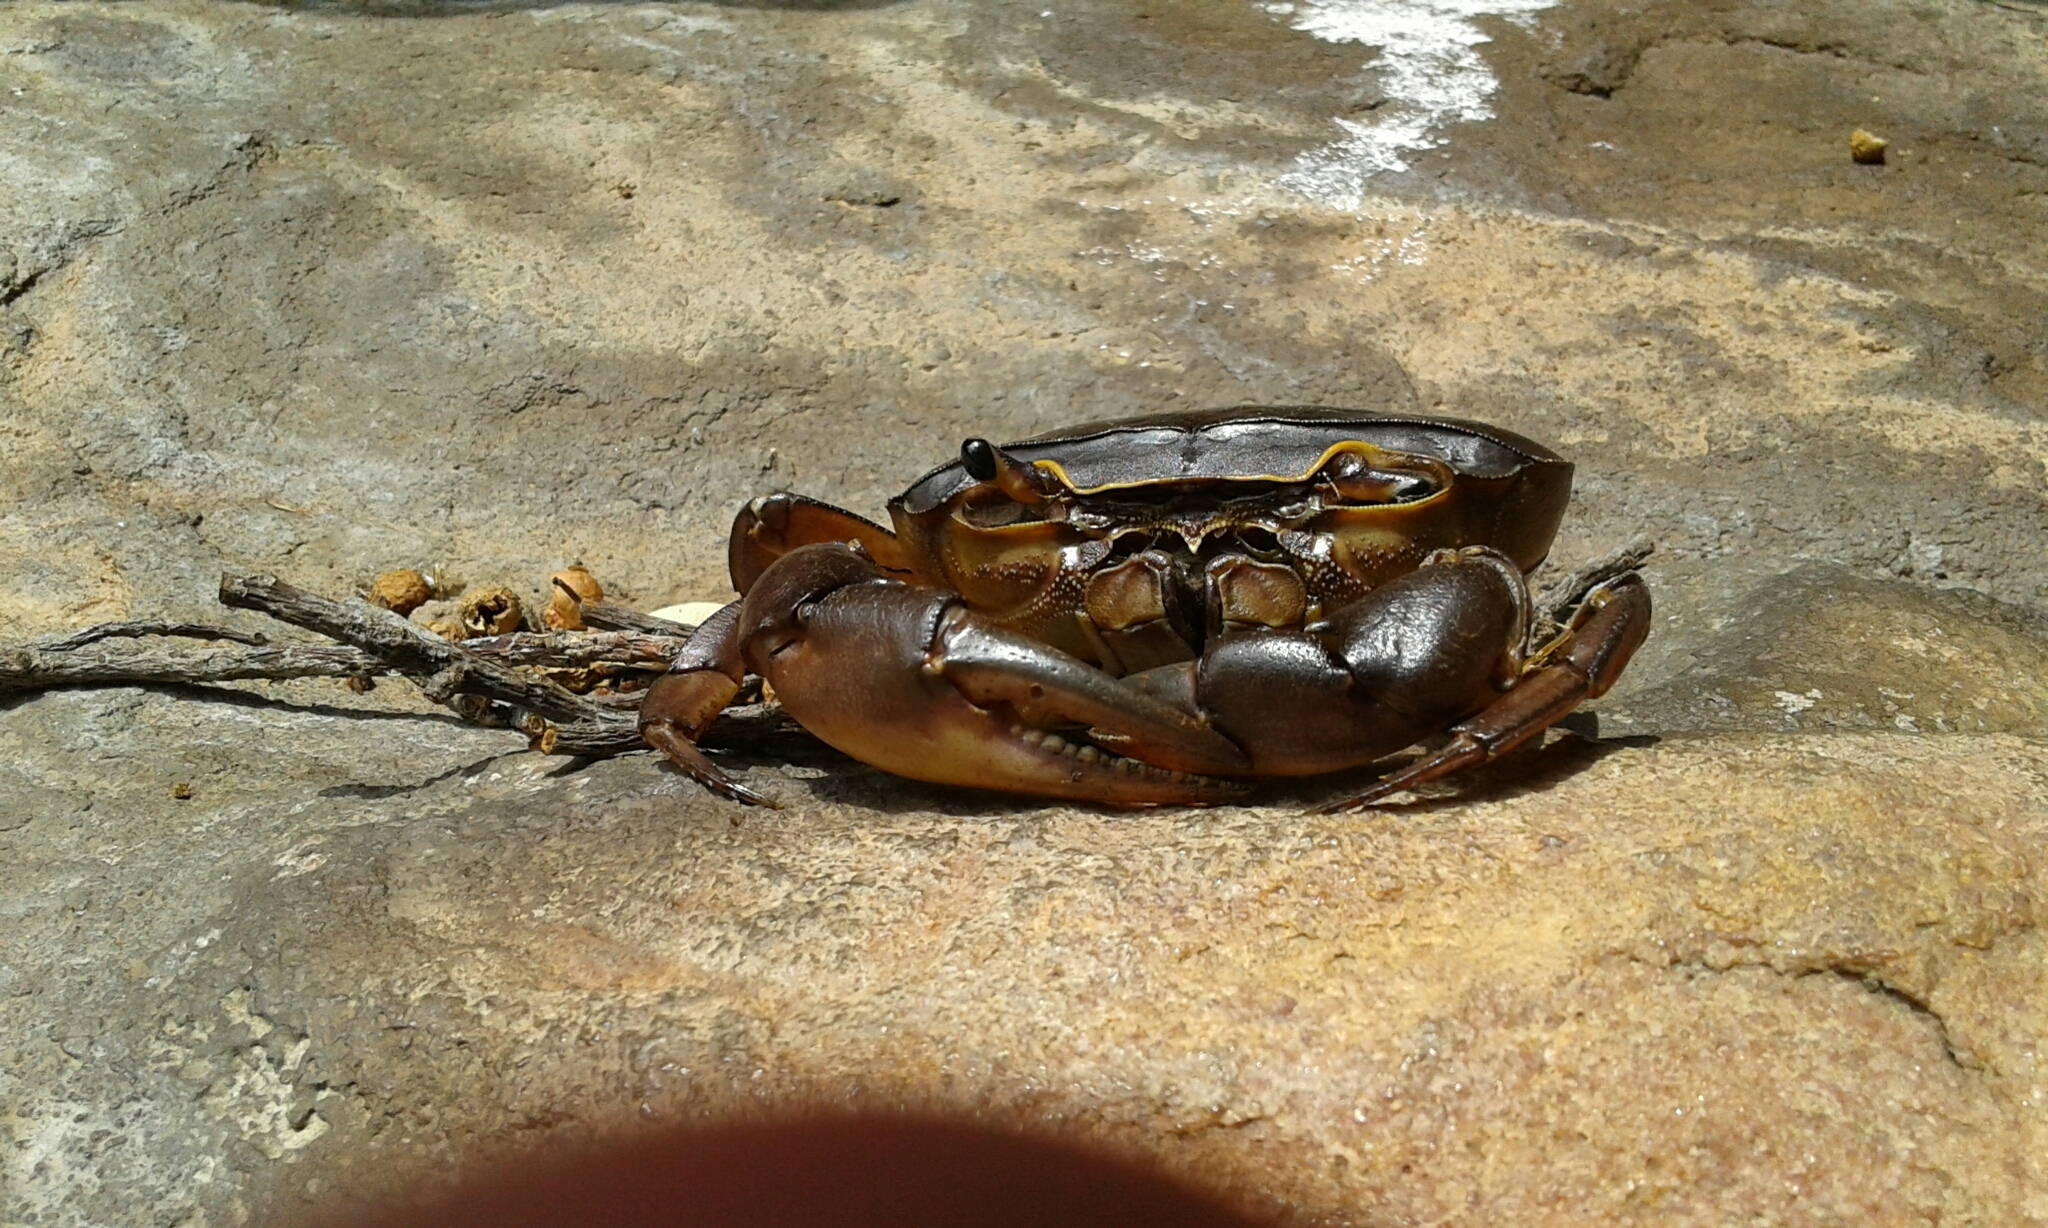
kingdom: Animalia
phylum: Arthropoda
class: Malacostraca
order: Decapoda
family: Potamonautidae
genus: Potamonautes
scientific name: Potamonautes unispinus
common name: Single-spined river crab
